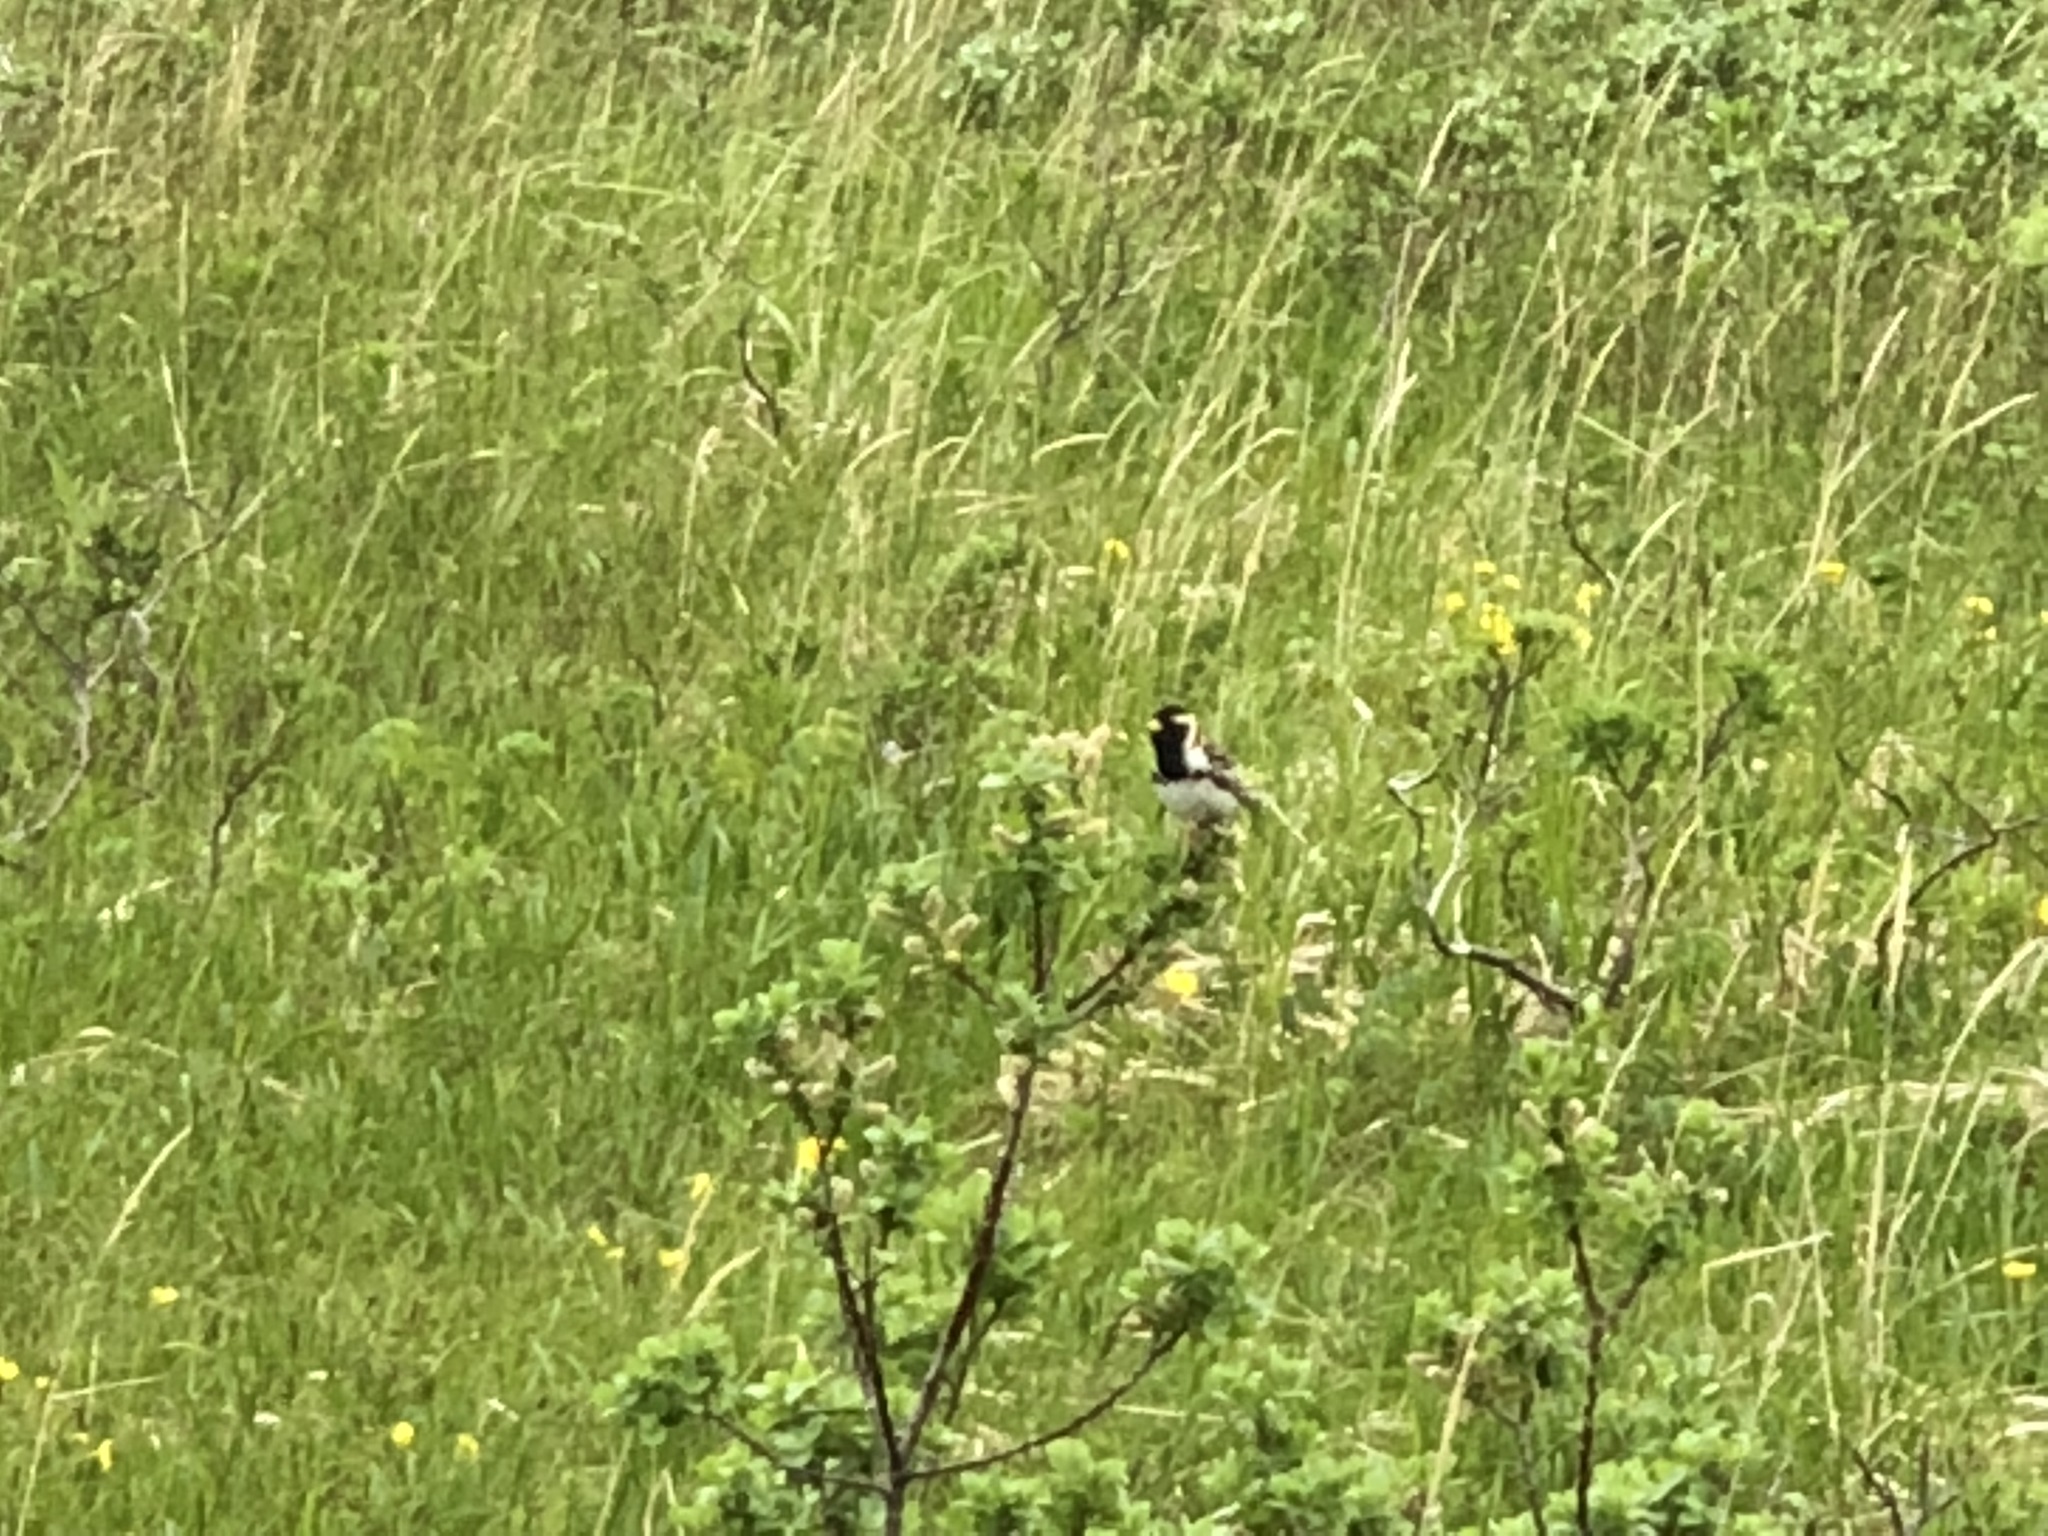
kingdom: Animalia
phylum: Chordata
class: Aves
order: Passeriformes
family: Calcariidae
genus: Calcarius
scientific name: Calcarius lapponicus
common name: Lapland longspur
